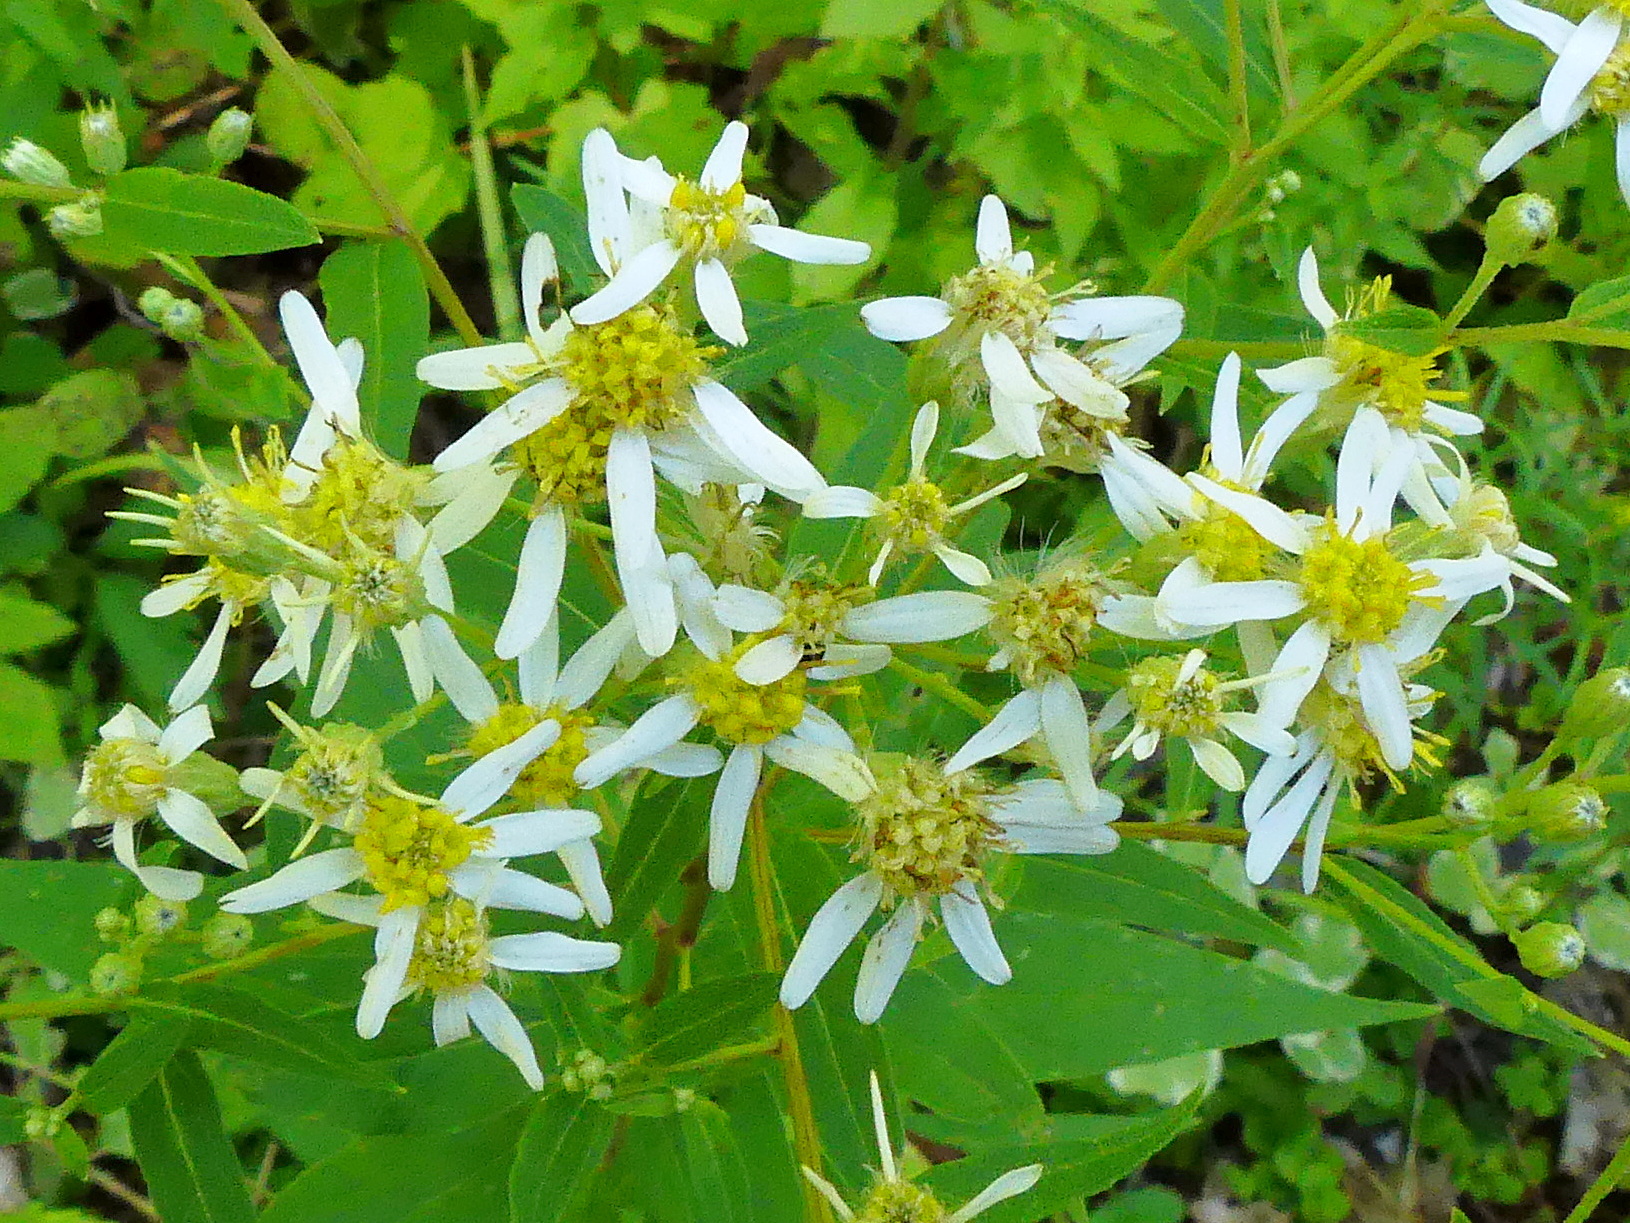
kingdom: Plantae
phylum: Tracheophyta
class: Magnoliopsida
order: Asterales
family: Asteraceae
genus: Doellingeria
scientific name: Doellingeria umbellata
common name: Flat-top white aster
